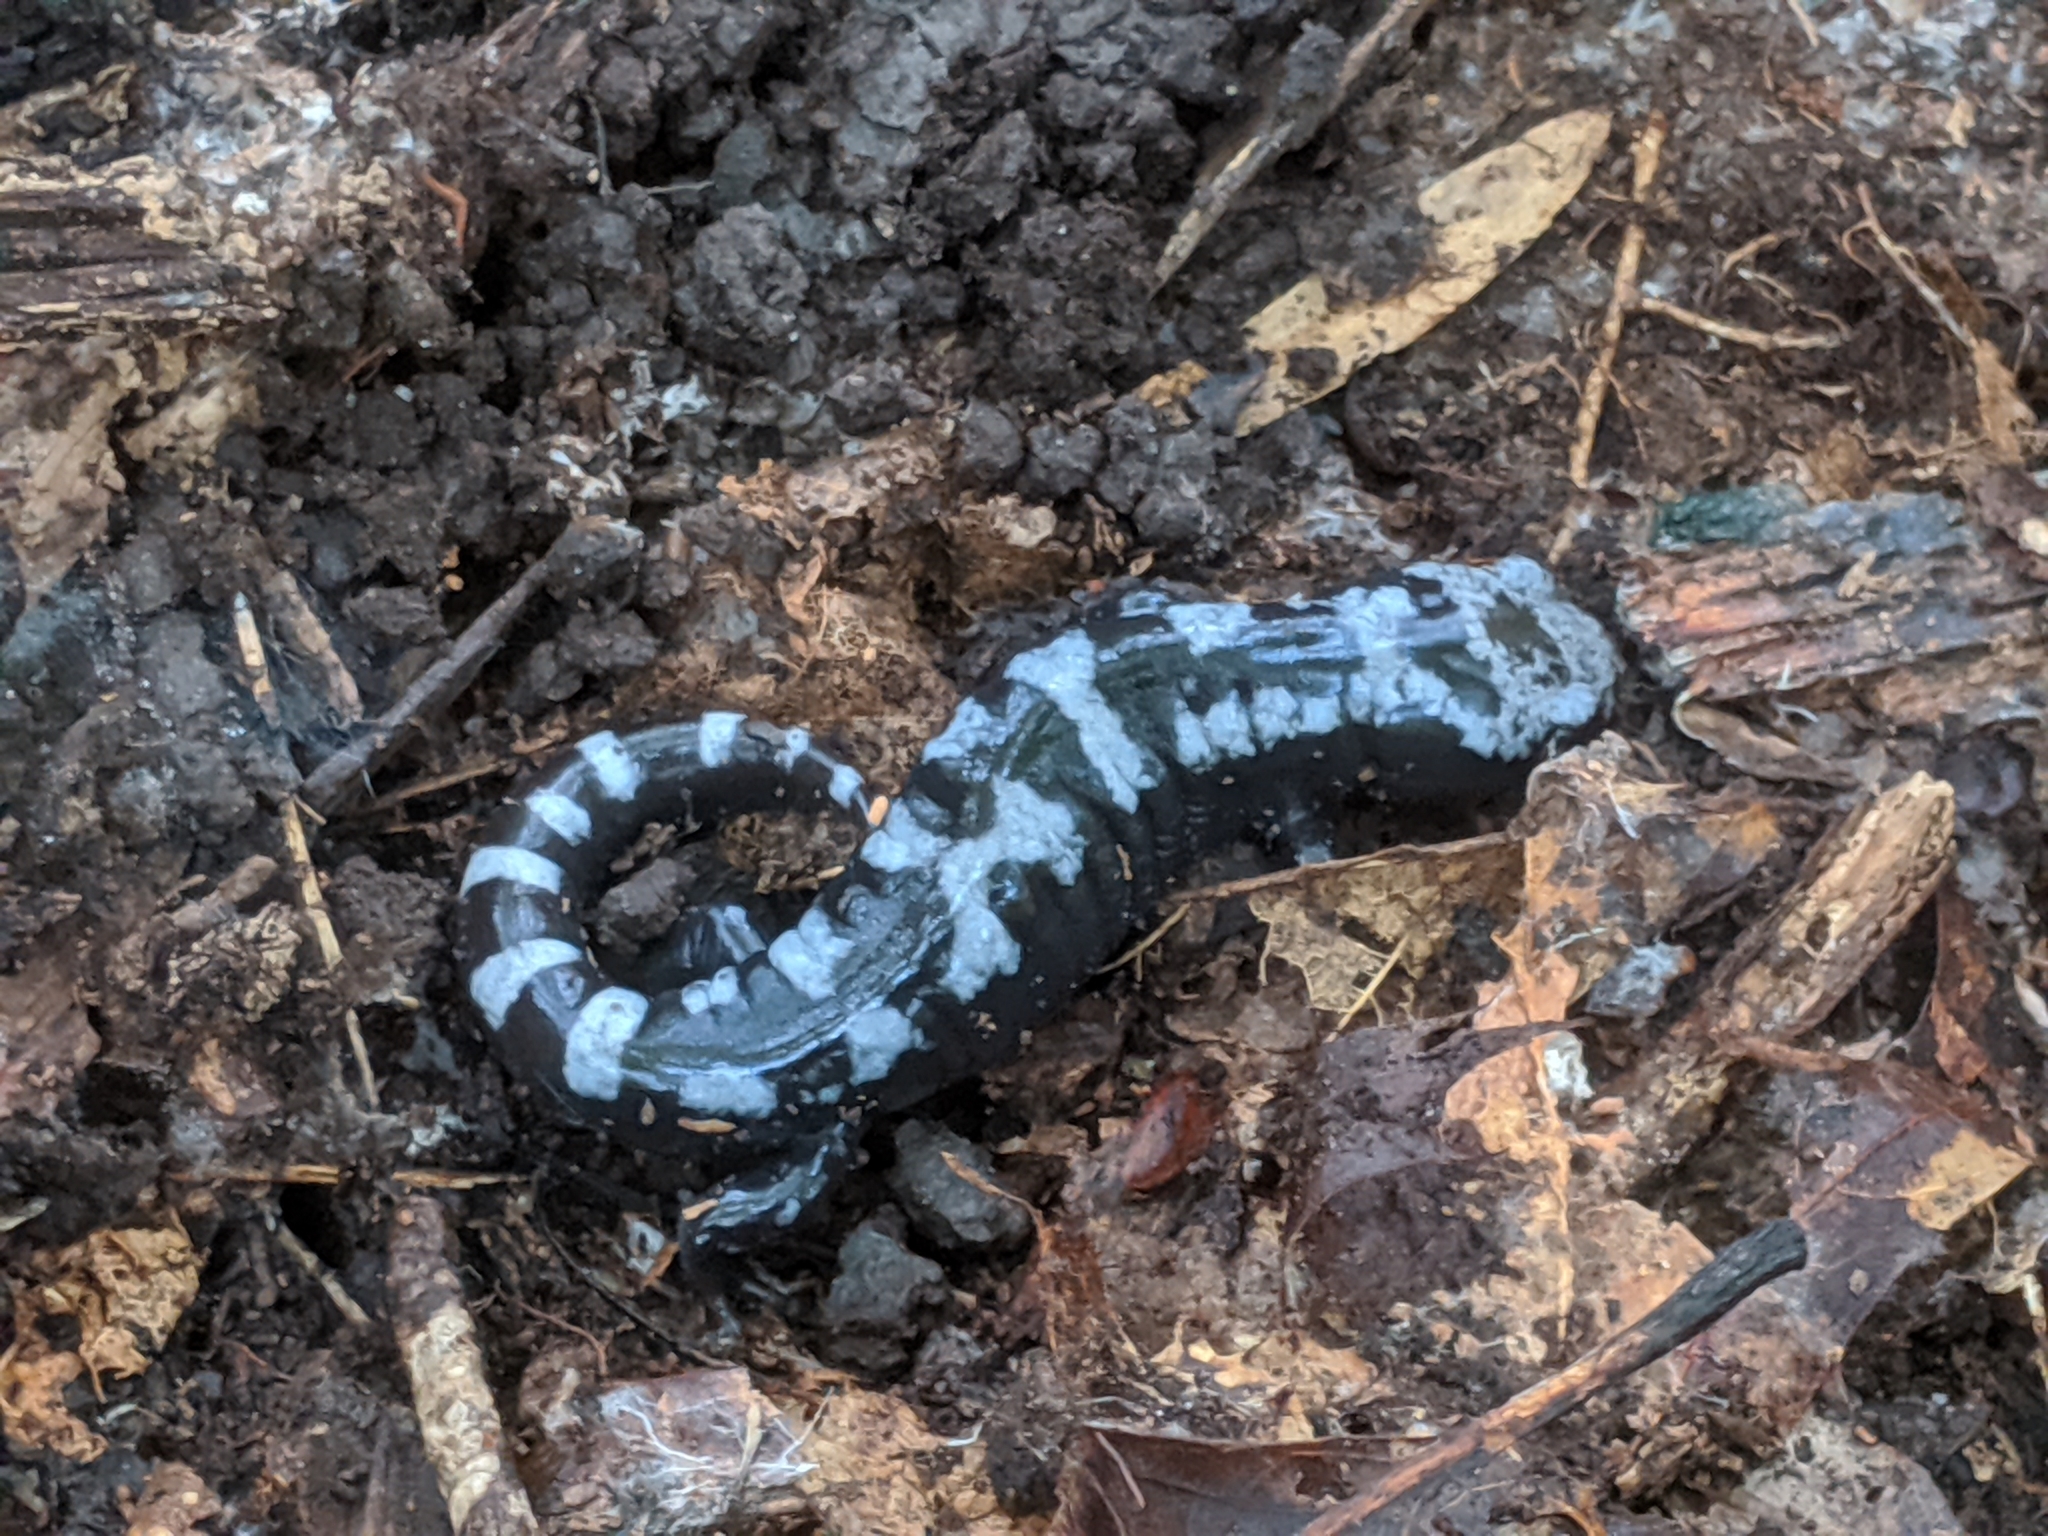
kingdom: Animalia
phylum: Chordata
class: Amphibia
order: Caudata
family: Ambystomatidae
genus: Ambystoma
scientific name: Ambystoma opacum
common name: Marbled salamander
